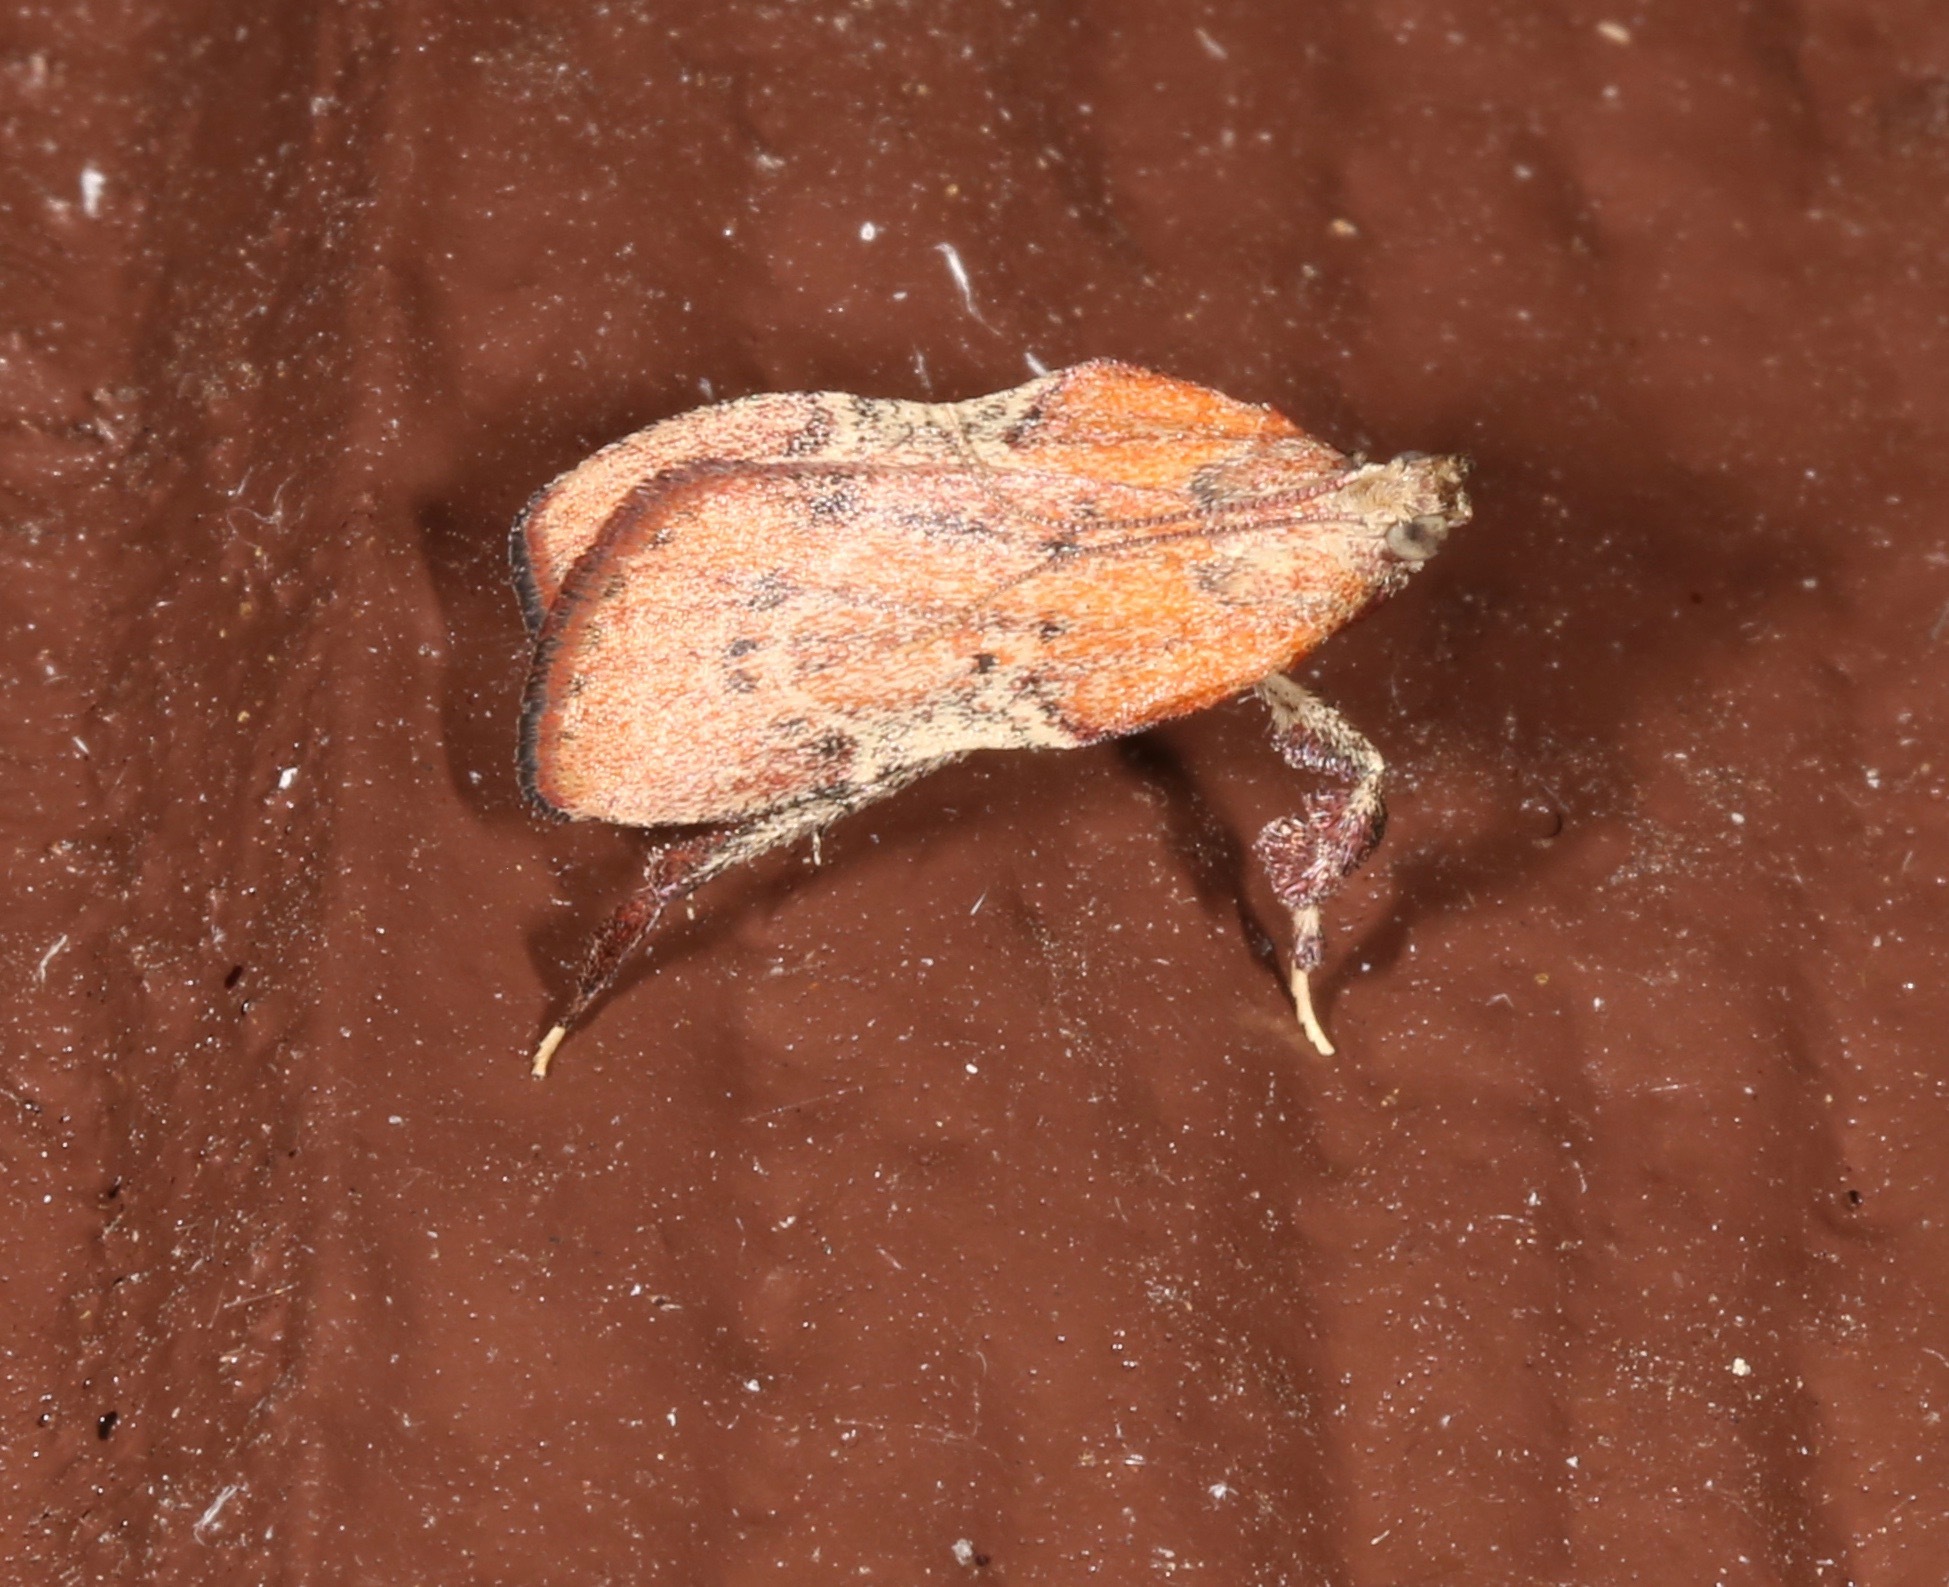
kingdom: Animalia
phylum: Arthropoda
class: Insecta
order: Lepidoptera
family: Pyralidae
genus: Galasa
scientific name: Galasa nigripunctalis
